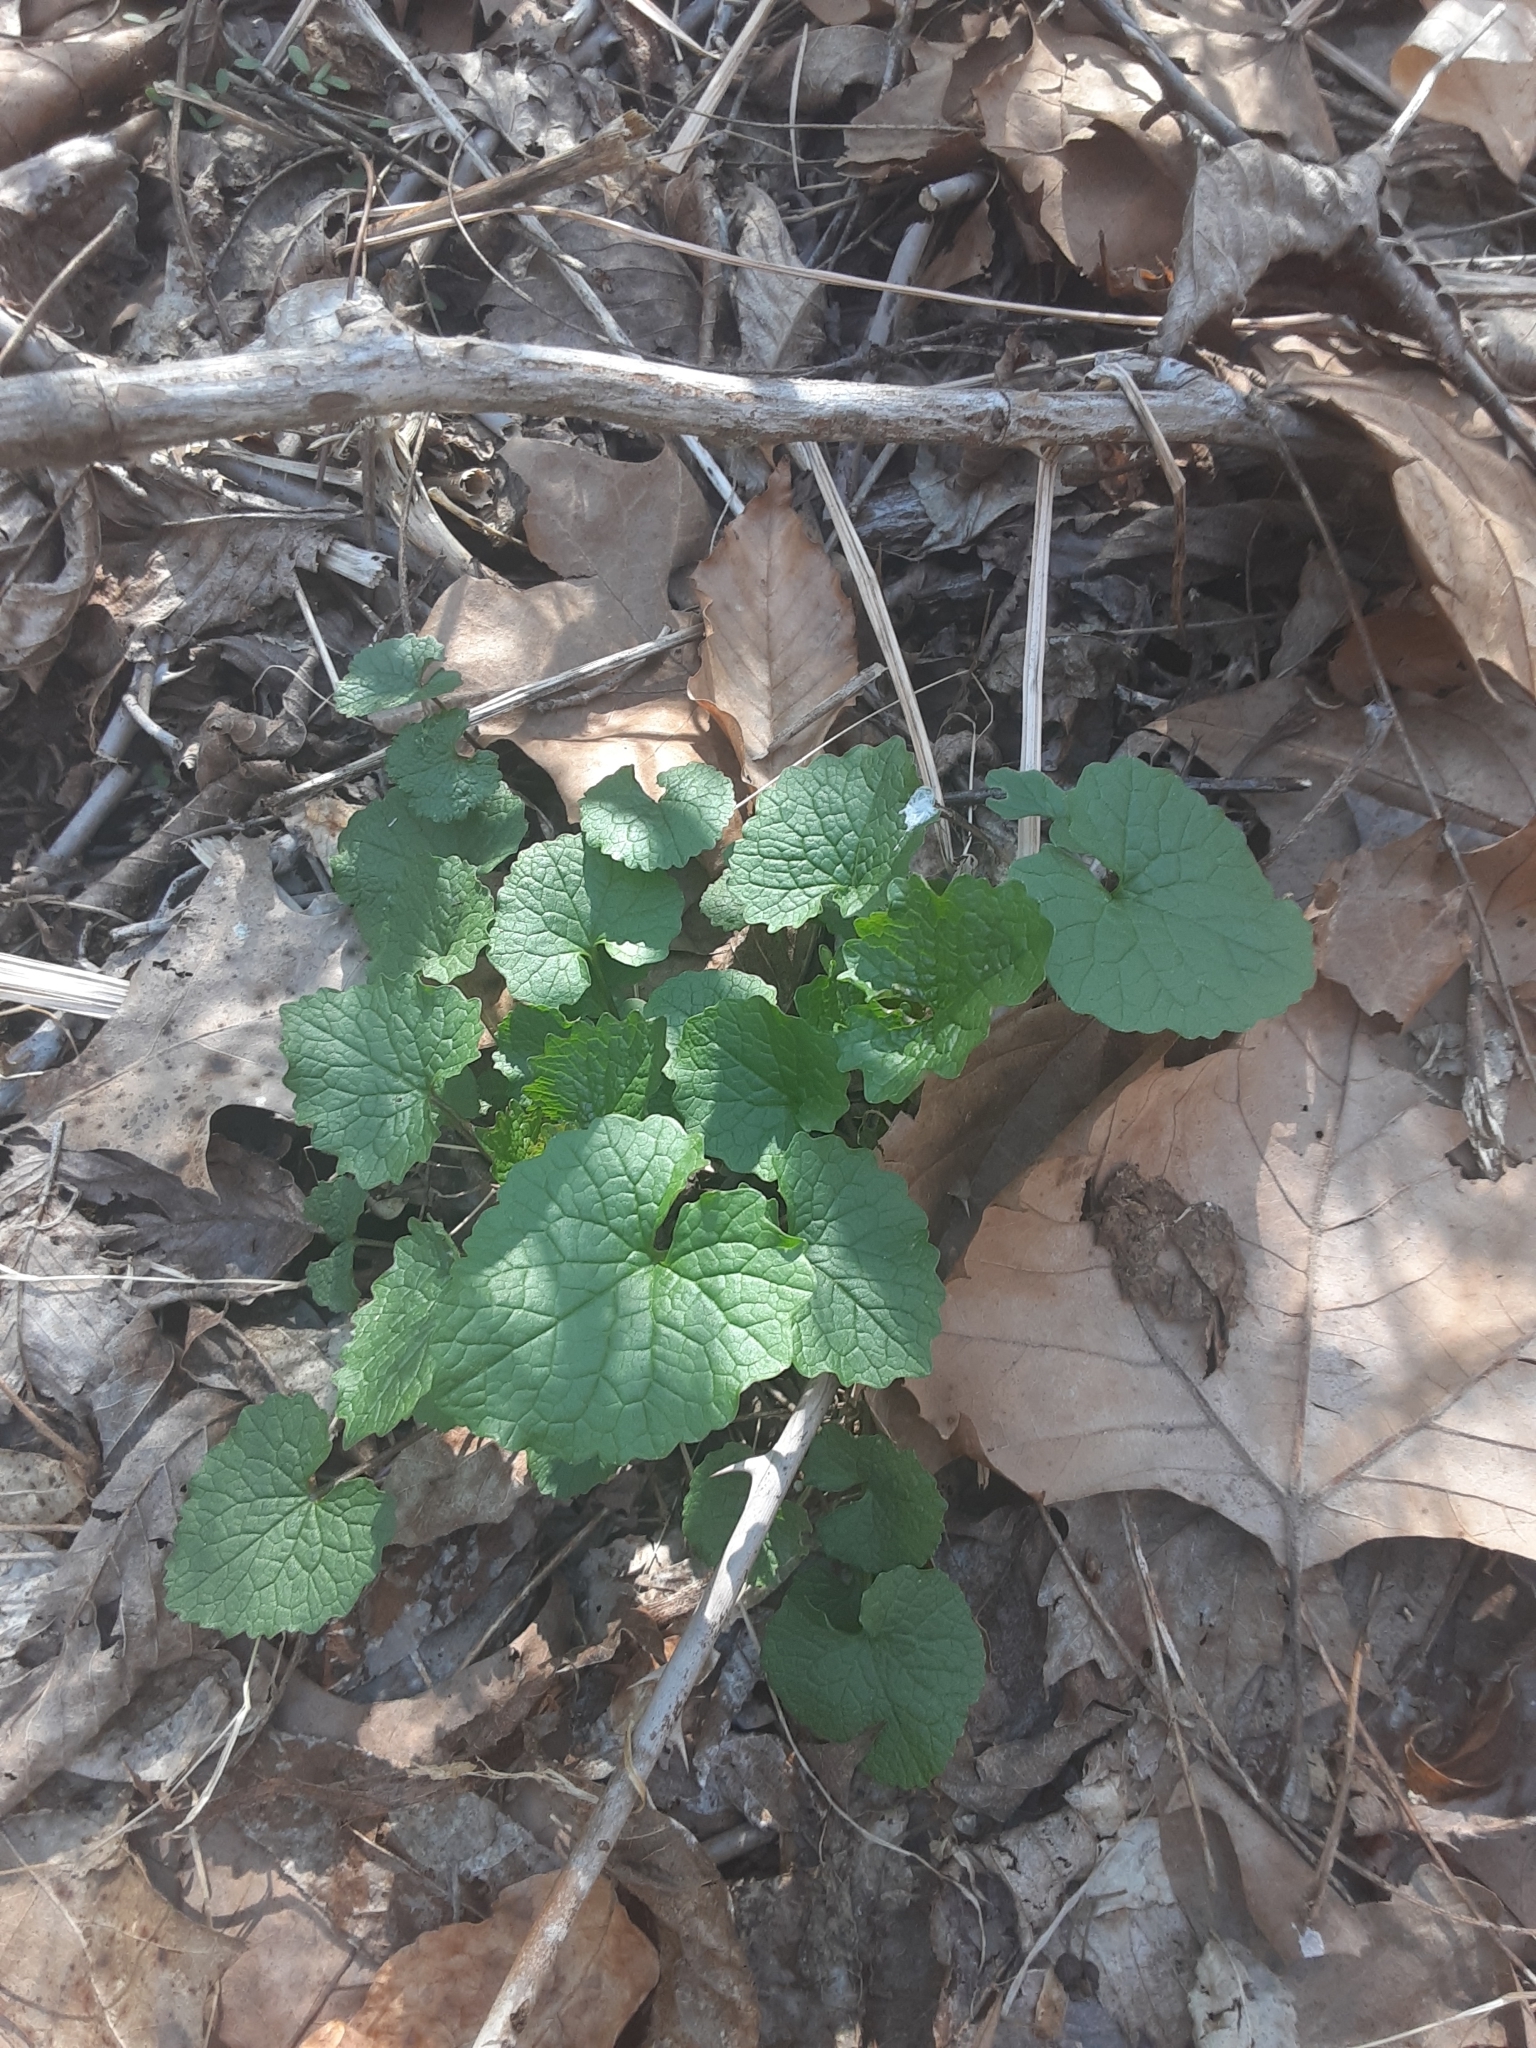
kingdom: Plantae
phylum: Tracheophyta
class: Magnoliopsida
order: Brassicales
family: Brassicaceae
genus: Alliaria
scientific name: Alliaria petiolata
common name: Garlic mustard
